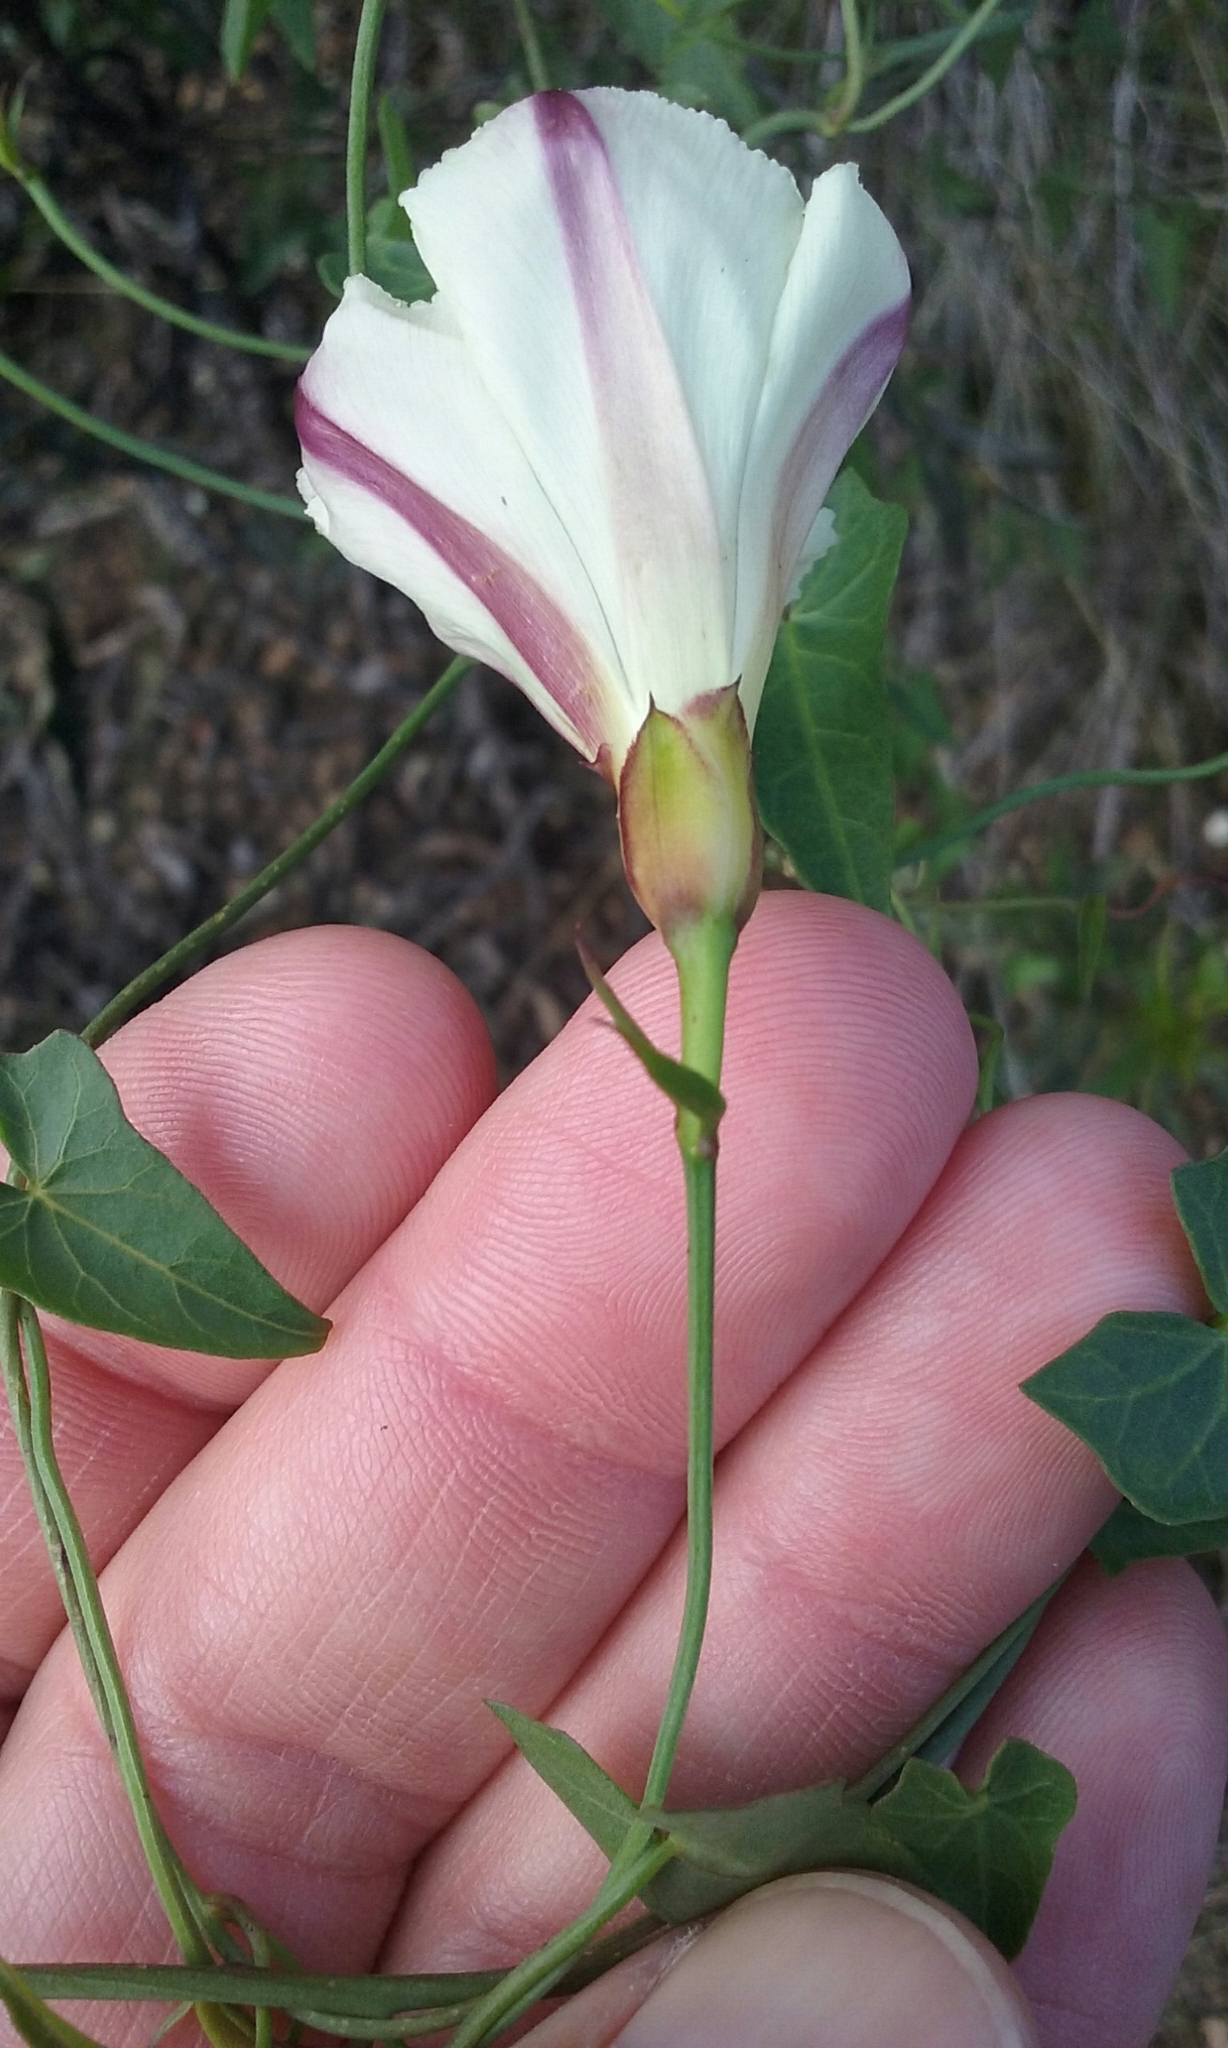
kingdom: Plantae
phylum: Tracheophyta
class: Magnoliopsida
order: Solanales
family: Convolvulaceae
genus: Calystegia
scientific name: Calystegia purpurata
